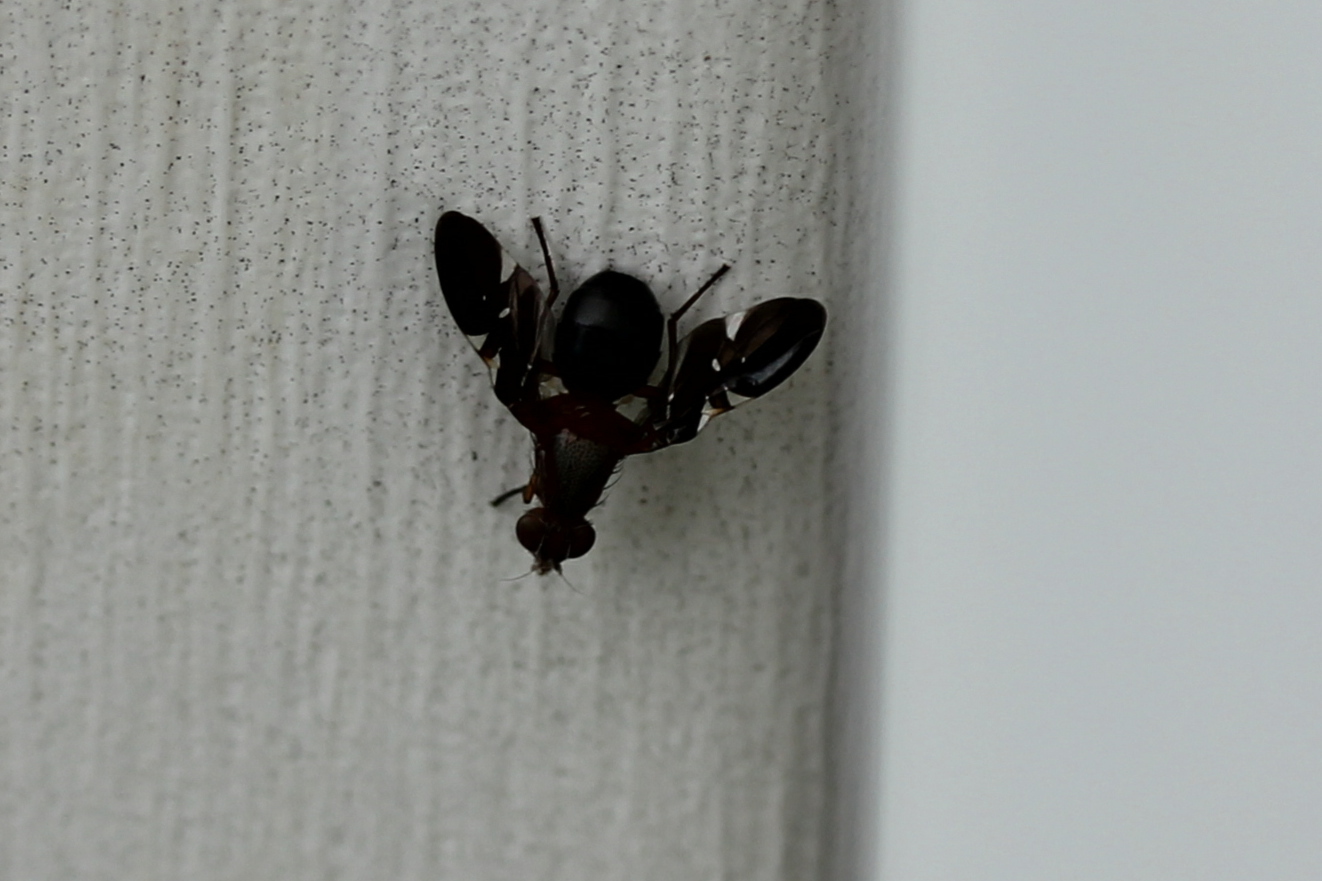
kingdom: Animalia
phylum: Arthropoda
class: Insecta
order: Diptera
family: Ulidiidae
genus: Delphinia
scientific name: Delphinia picta
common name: Common picture-winged fly
